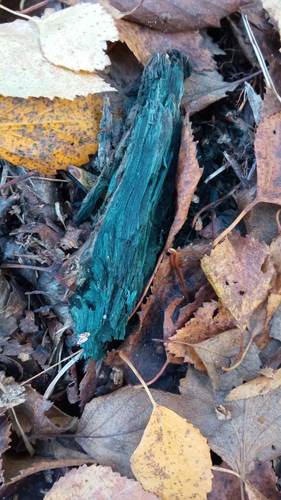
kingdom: Fungi
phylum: Ascomycota
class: Leotiomycetes
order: Helotiales
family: Chlorociboriaceae
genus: Chlorociboria
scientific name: Chlorociboria
